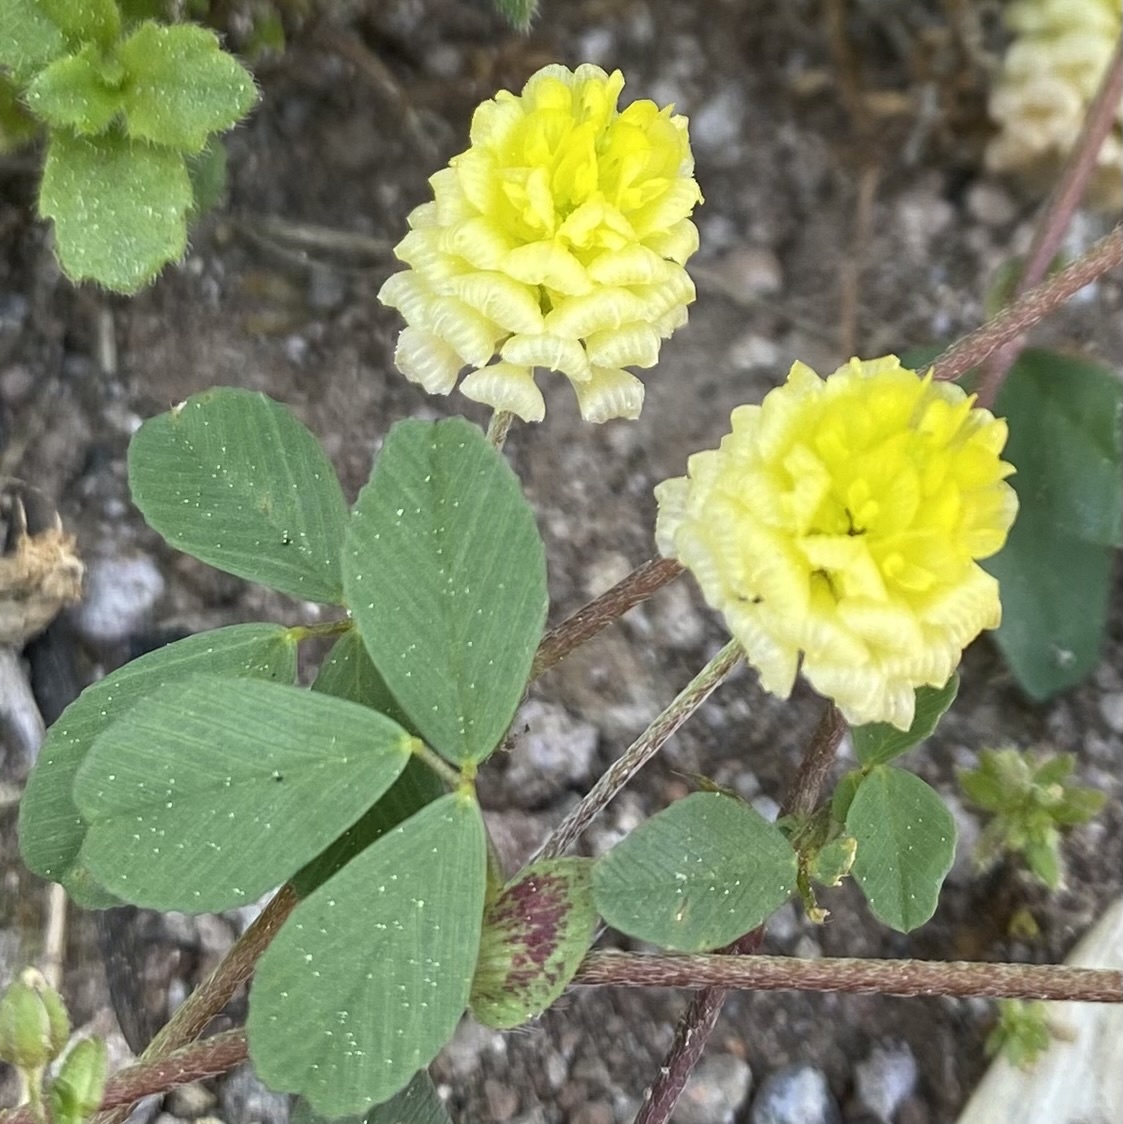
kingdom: Plantae
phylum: Tracheophyta
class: Magnoliopsida
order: Fabales
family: Fabaceae
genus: Trifolium
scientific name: Trifolium campestre
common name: Field clover
